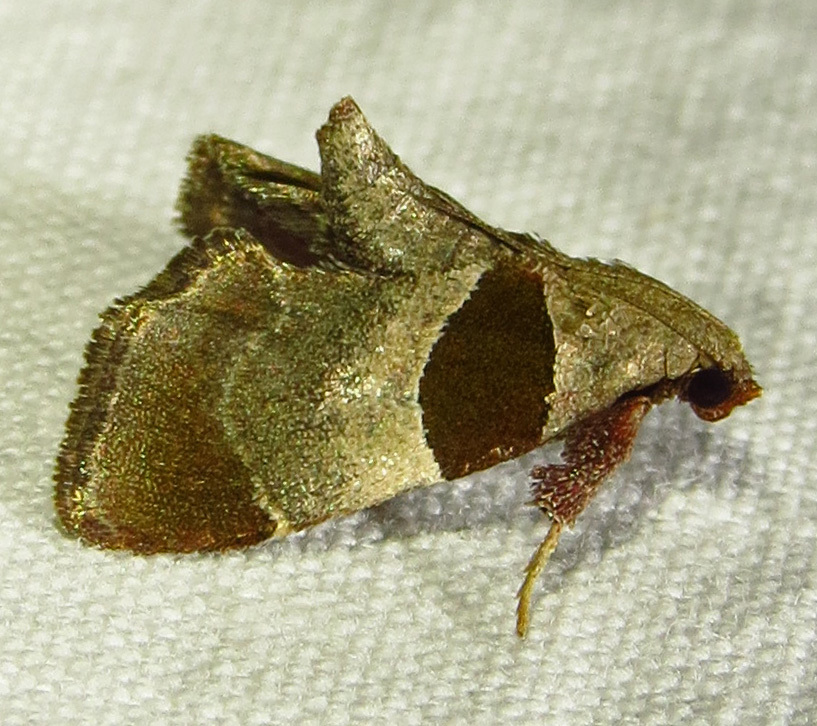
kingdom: Animalia
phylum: Arthropoda
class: Insecta
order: Lepidoptera
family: Pyralidae
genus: Tosale
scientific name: Tosale oviplagalis
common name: Dimorphic tosale moth
